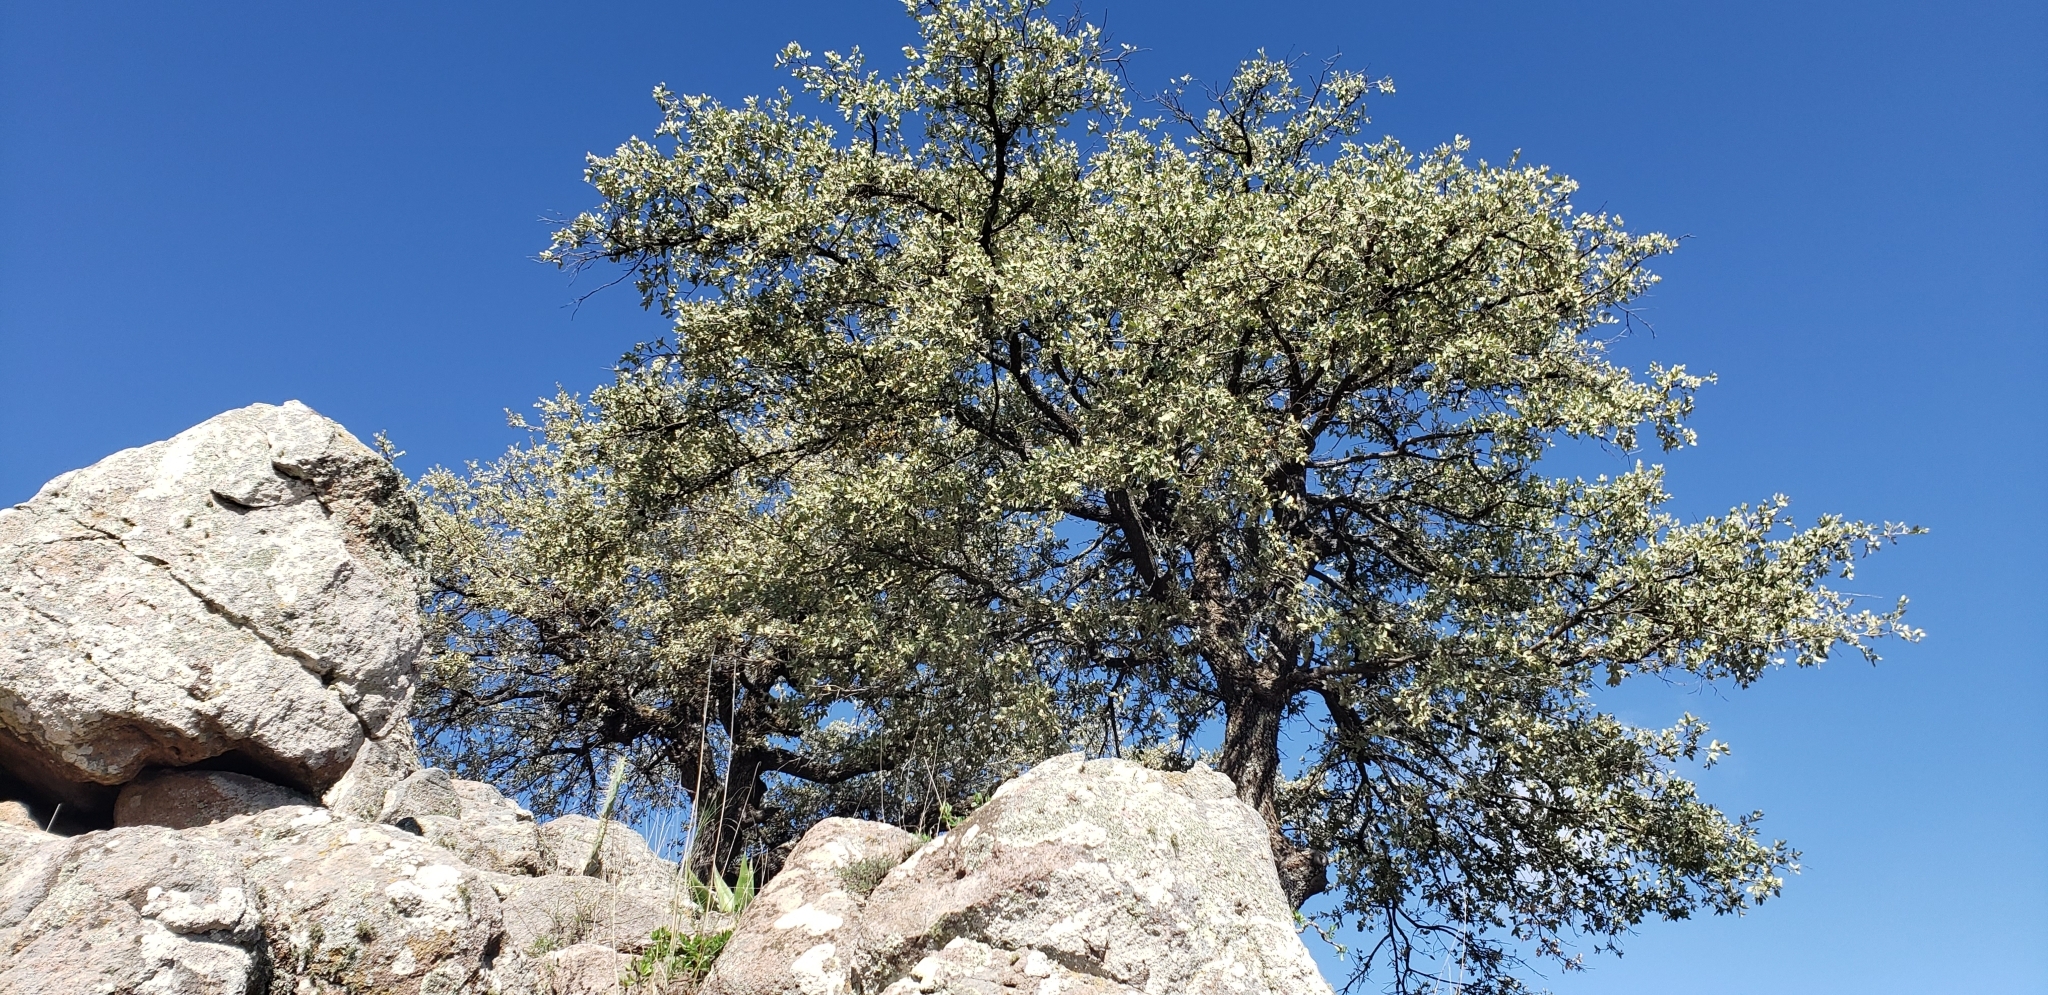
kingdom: Plantae
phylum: Tracheophyta
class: Magnoliopsida
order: Fagales
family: Fagaceae
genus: Quercus
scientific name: Quercus grisea
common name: Gray oak
